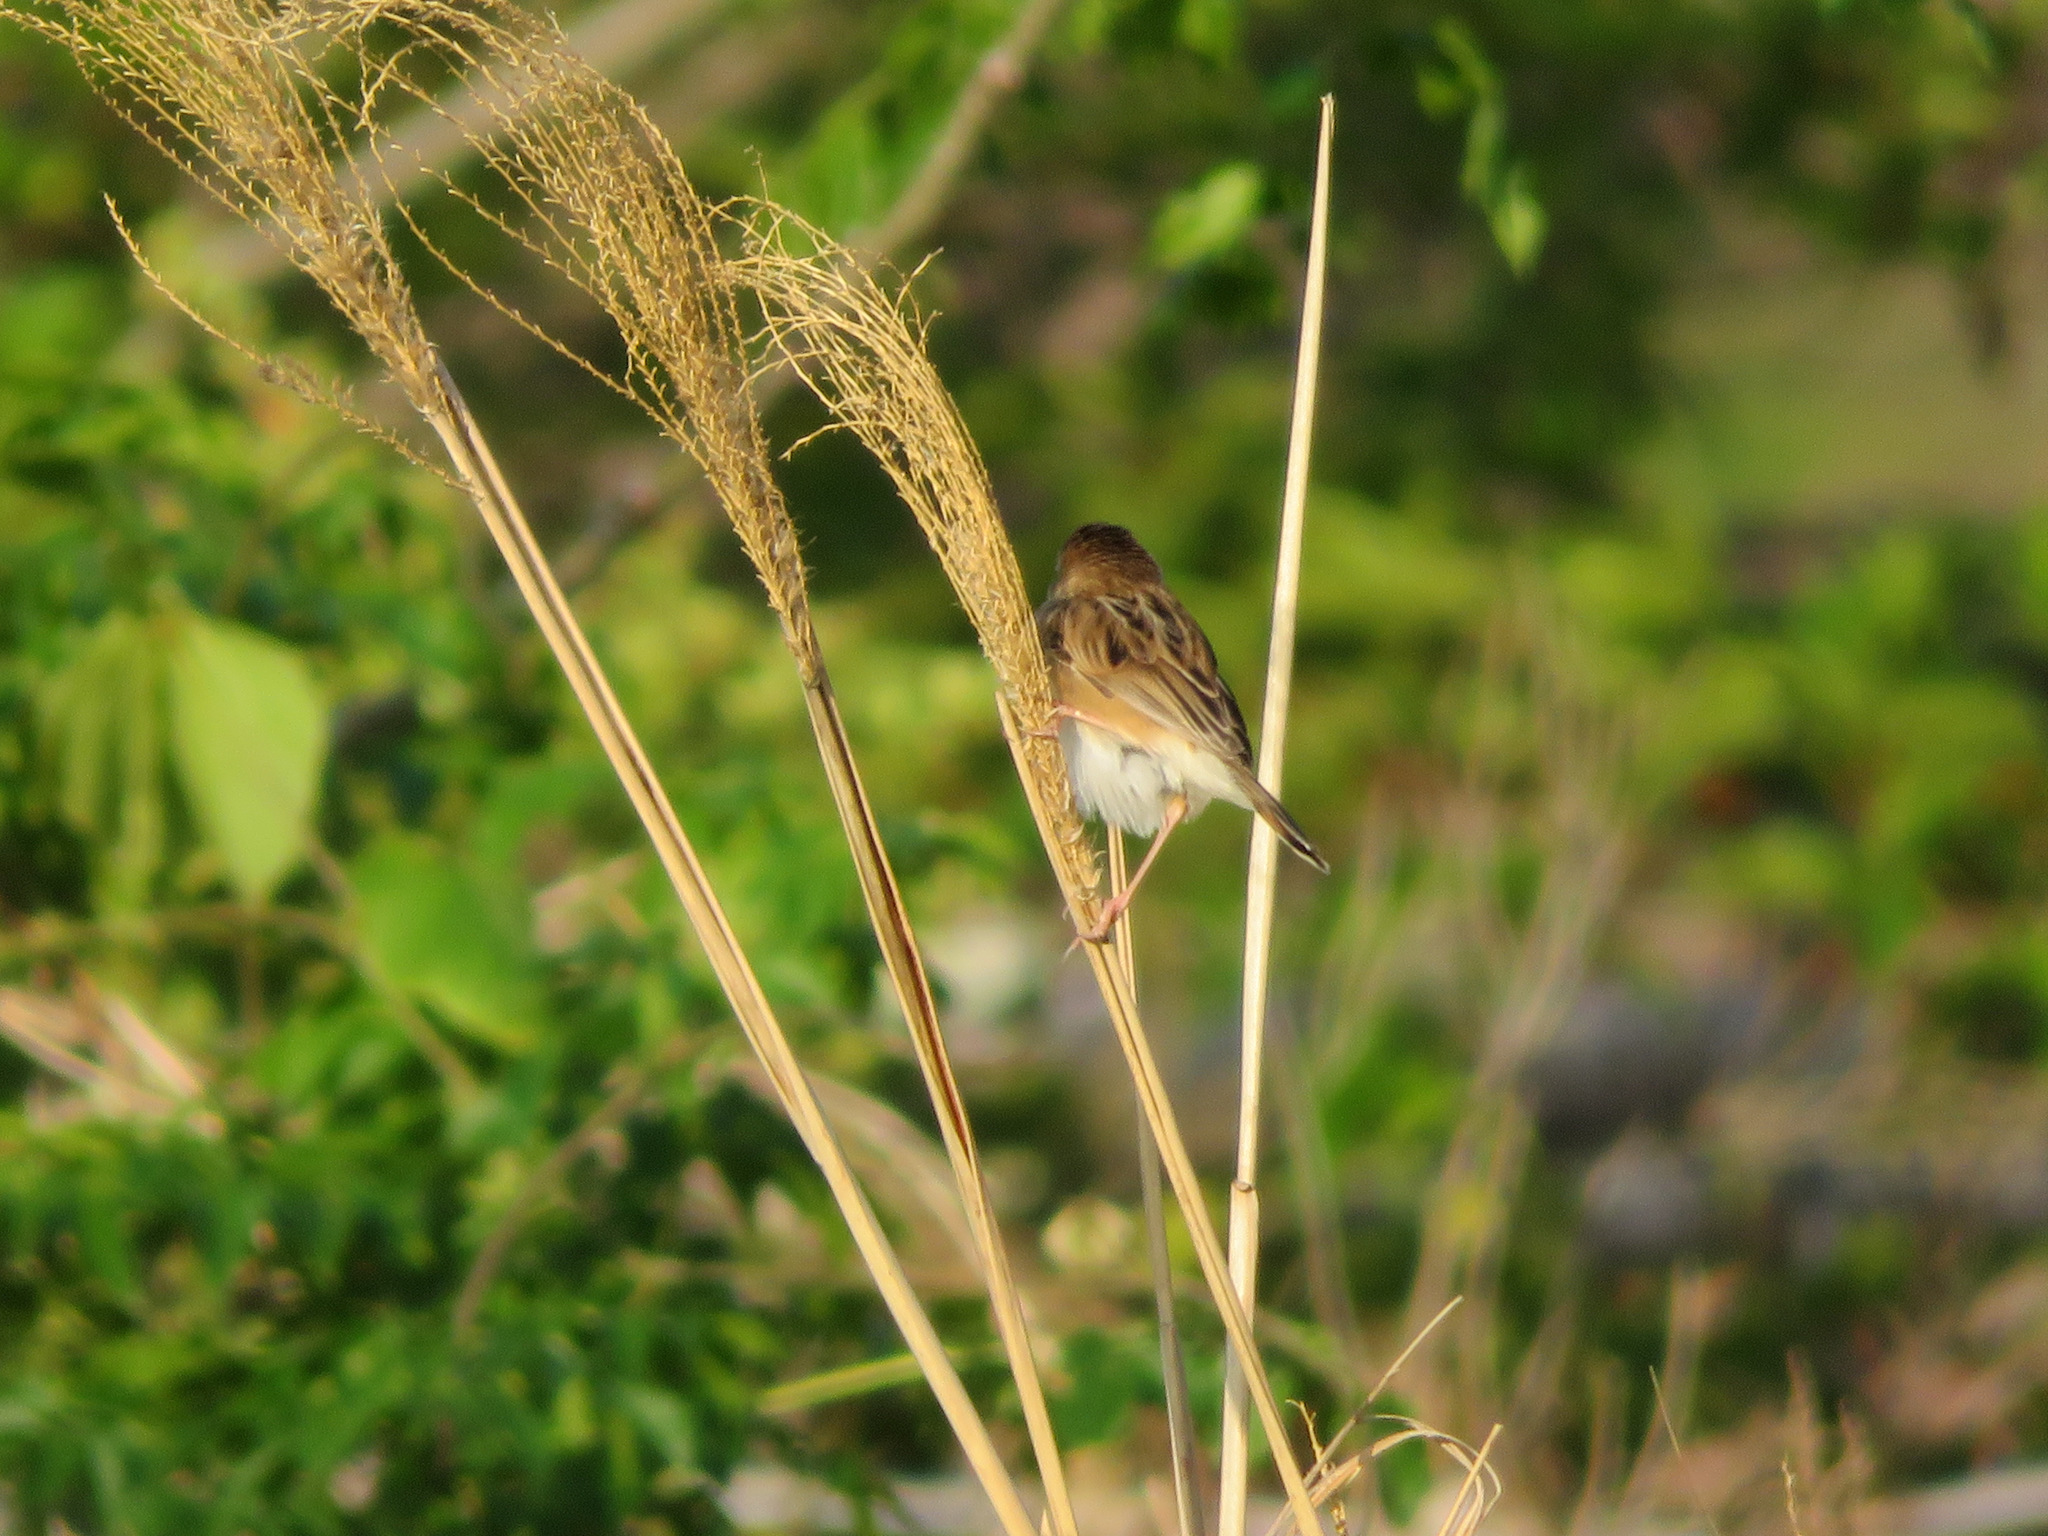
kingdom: Animalia
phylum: Chordata
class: Aves
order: Passeriformes
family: Cisticolidae
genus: Cisticola
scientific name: Cisticola juncidis
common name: Zitting cisticola
